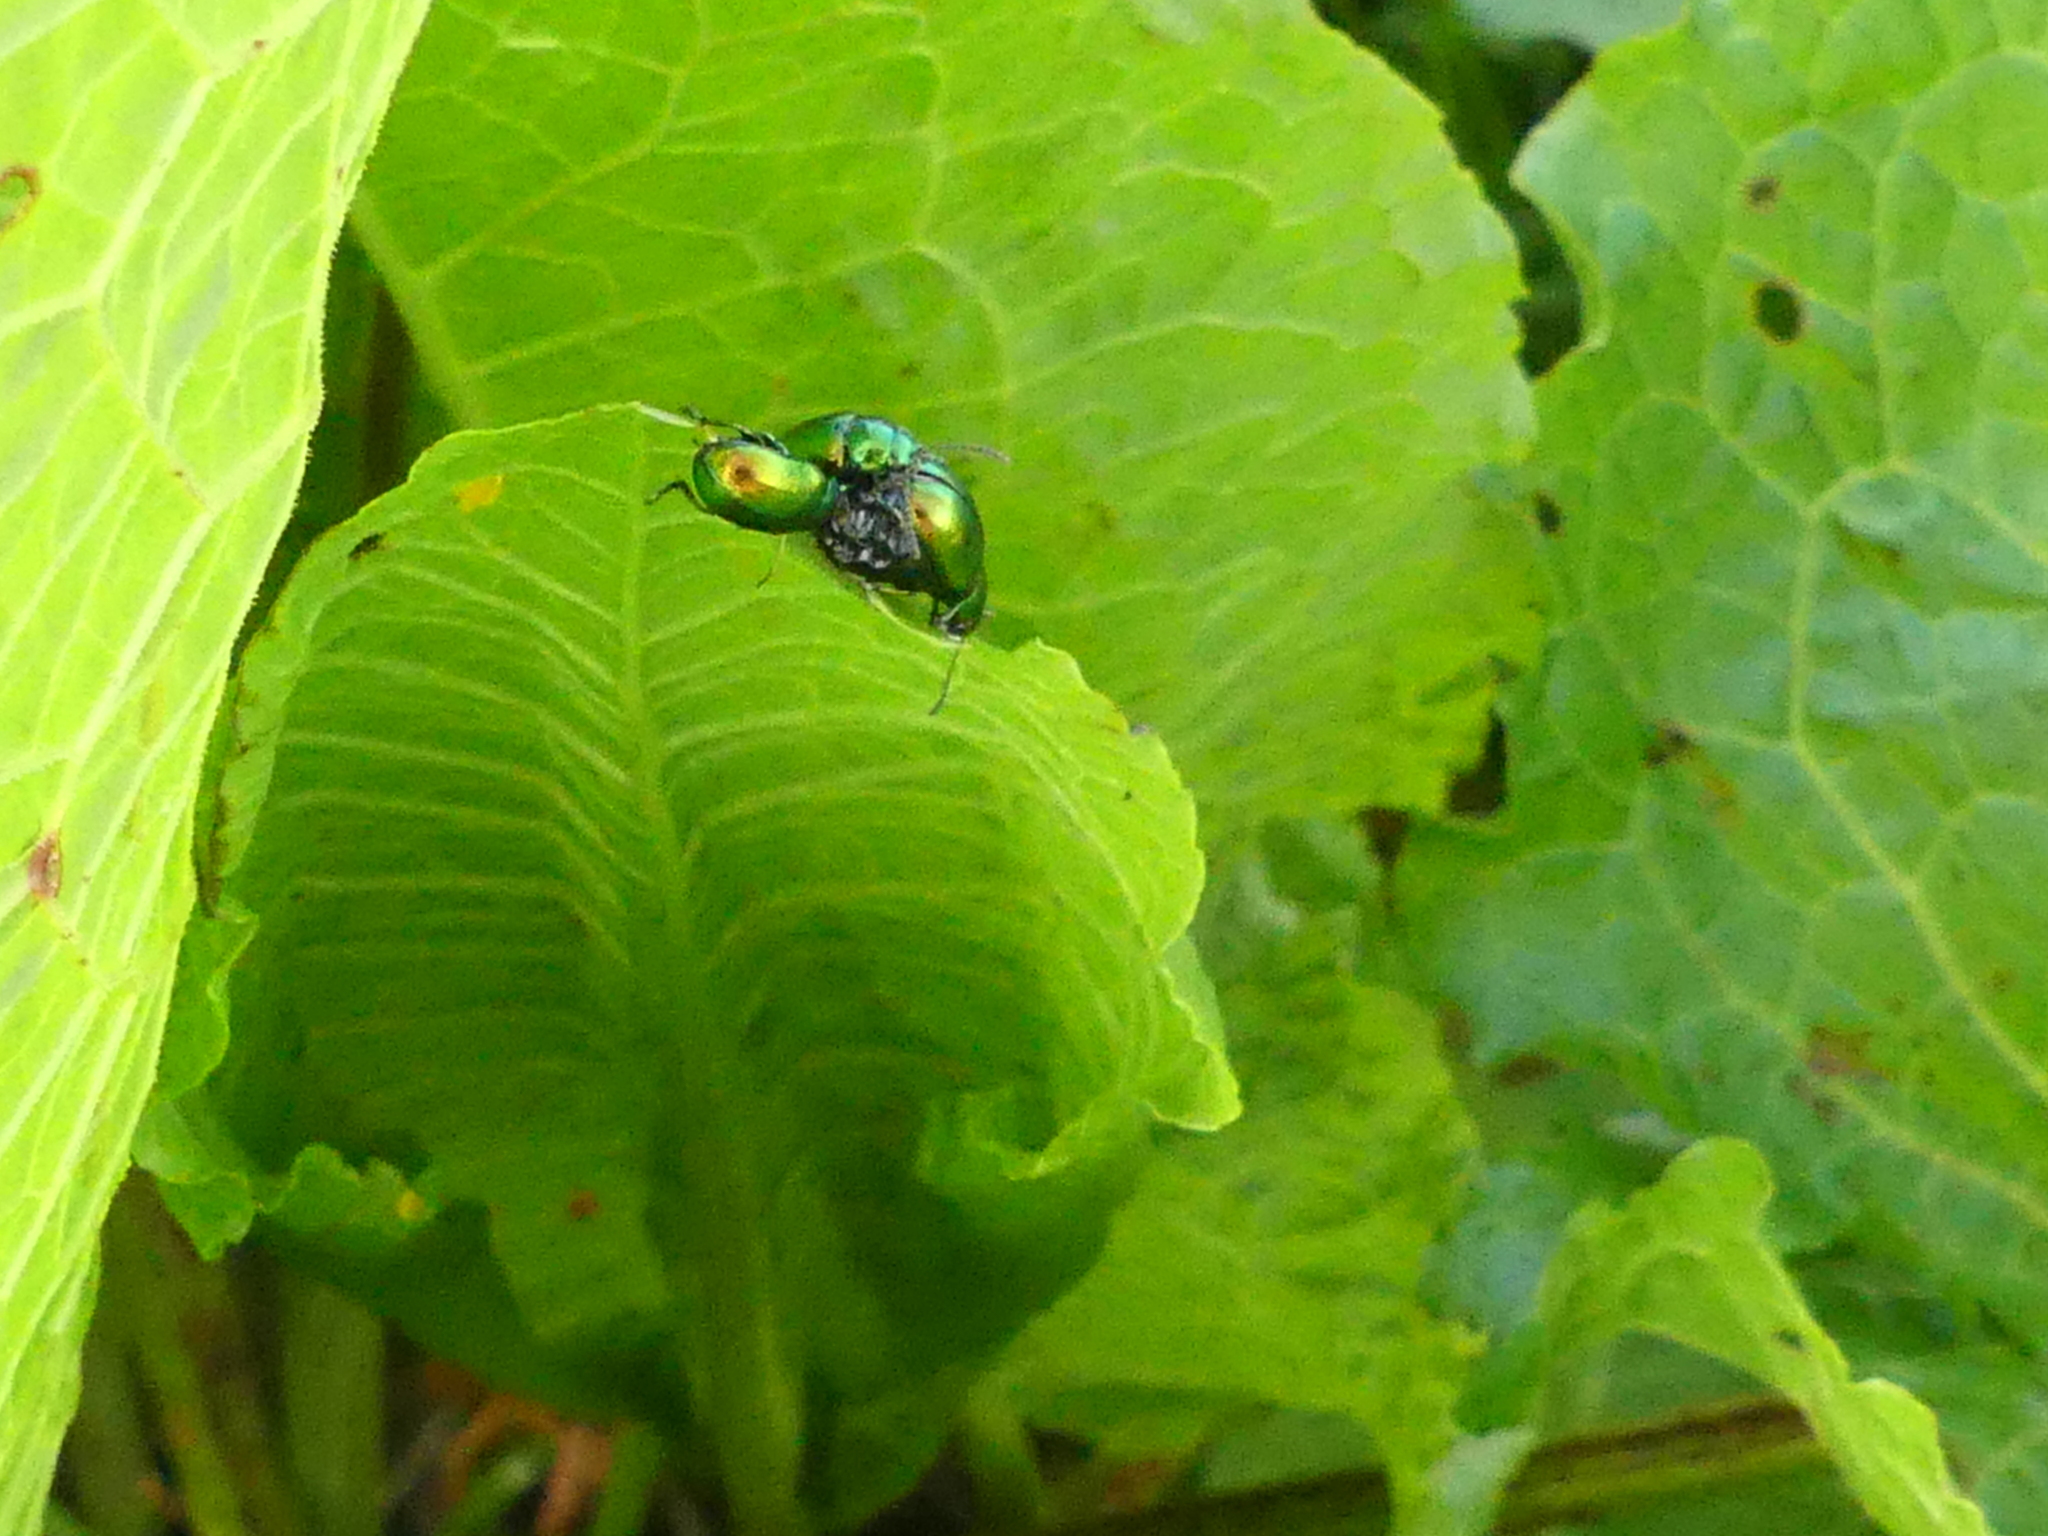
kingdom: Animalia
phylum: Arthropoda
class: Insecta
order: Coleoptera
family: Chrysomelidae
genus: Gastrophysa
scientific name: Gastrophysa viridula
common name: Green dock beetle
